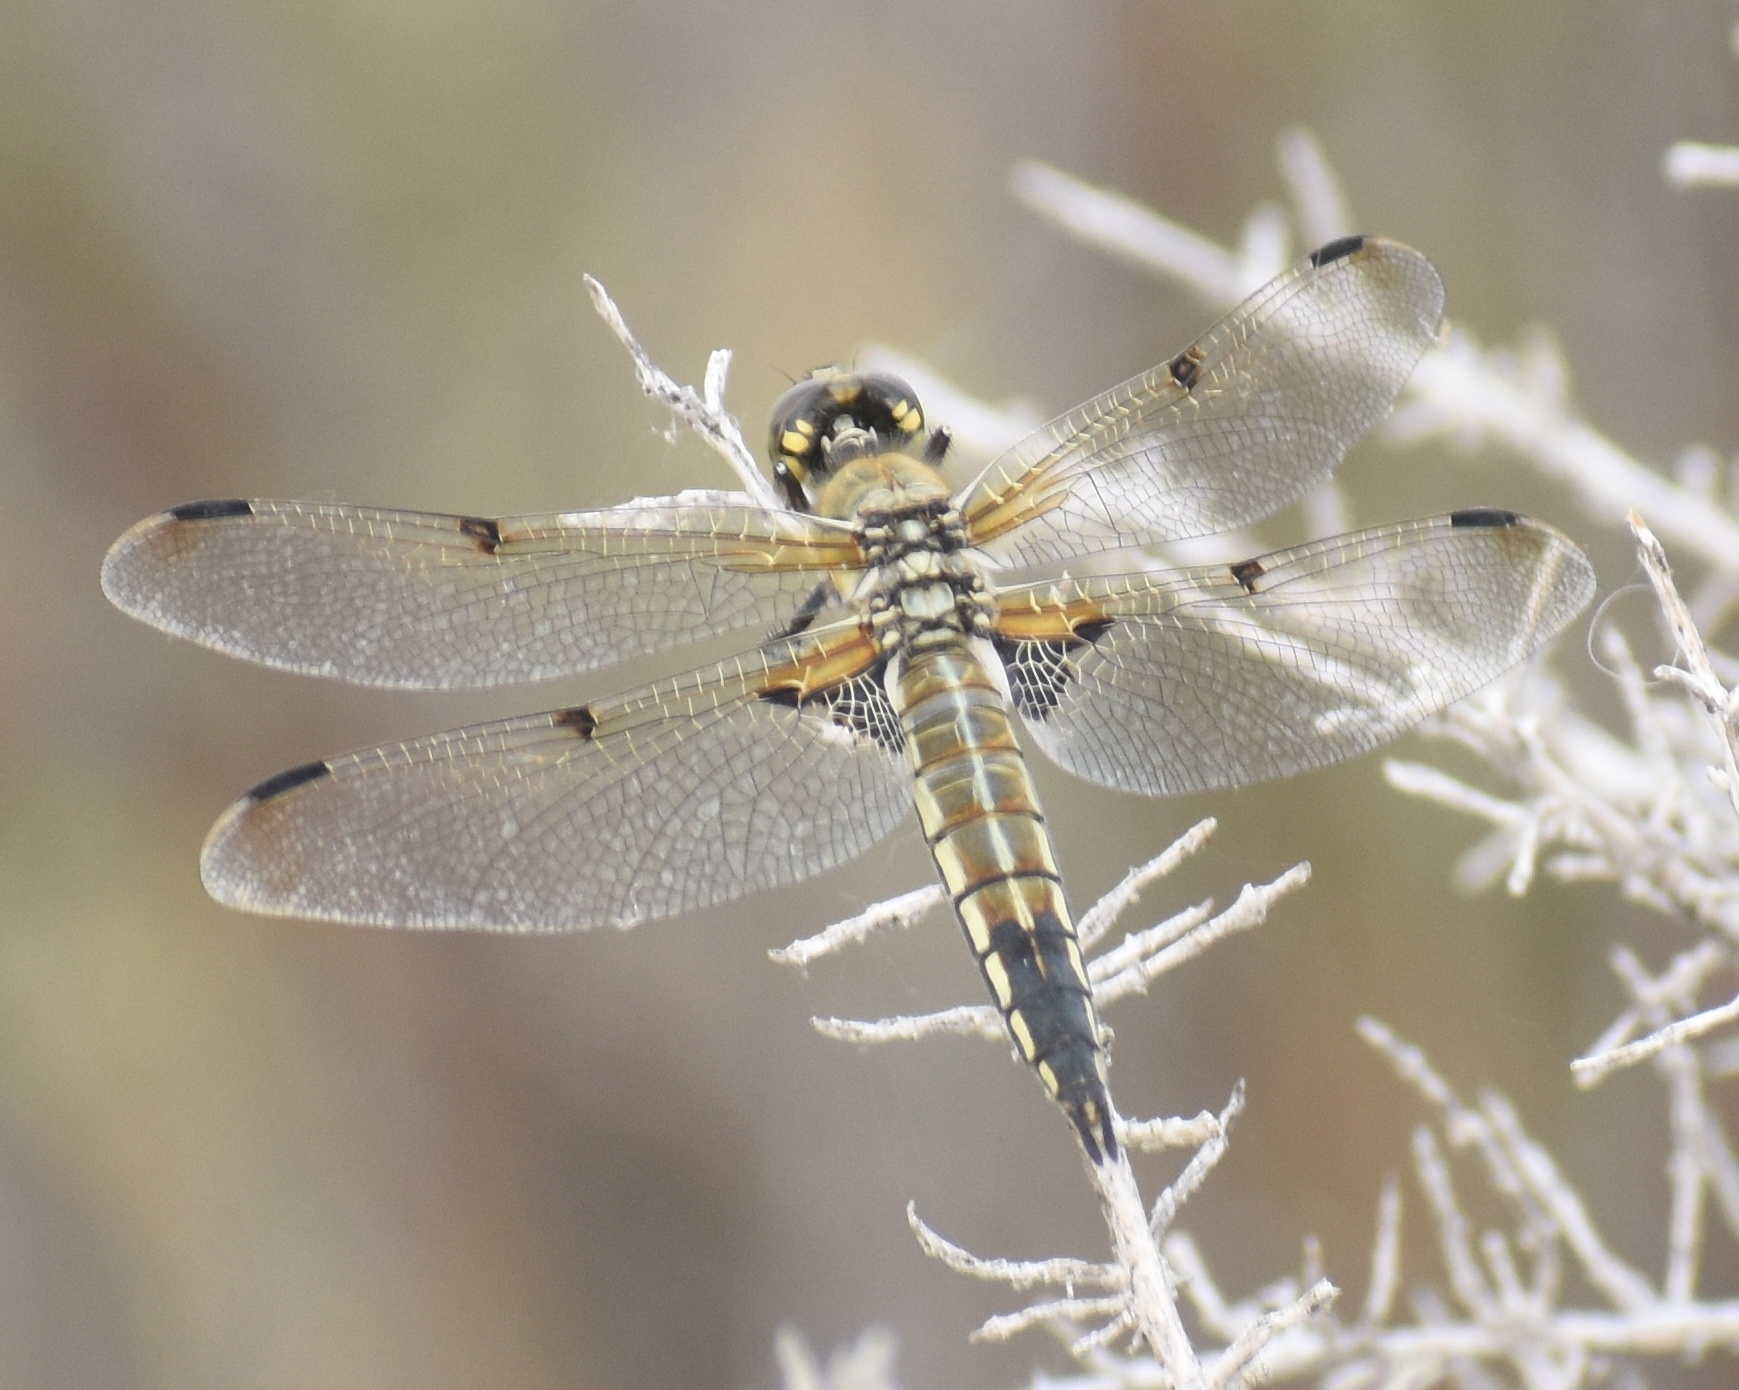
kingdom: Animalia
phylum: Arthropoda
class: Insecta
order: Odonata
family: Libellulidae
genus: Libellula
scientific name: Libellula quadrimaculata
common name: Four-spotted chaser
